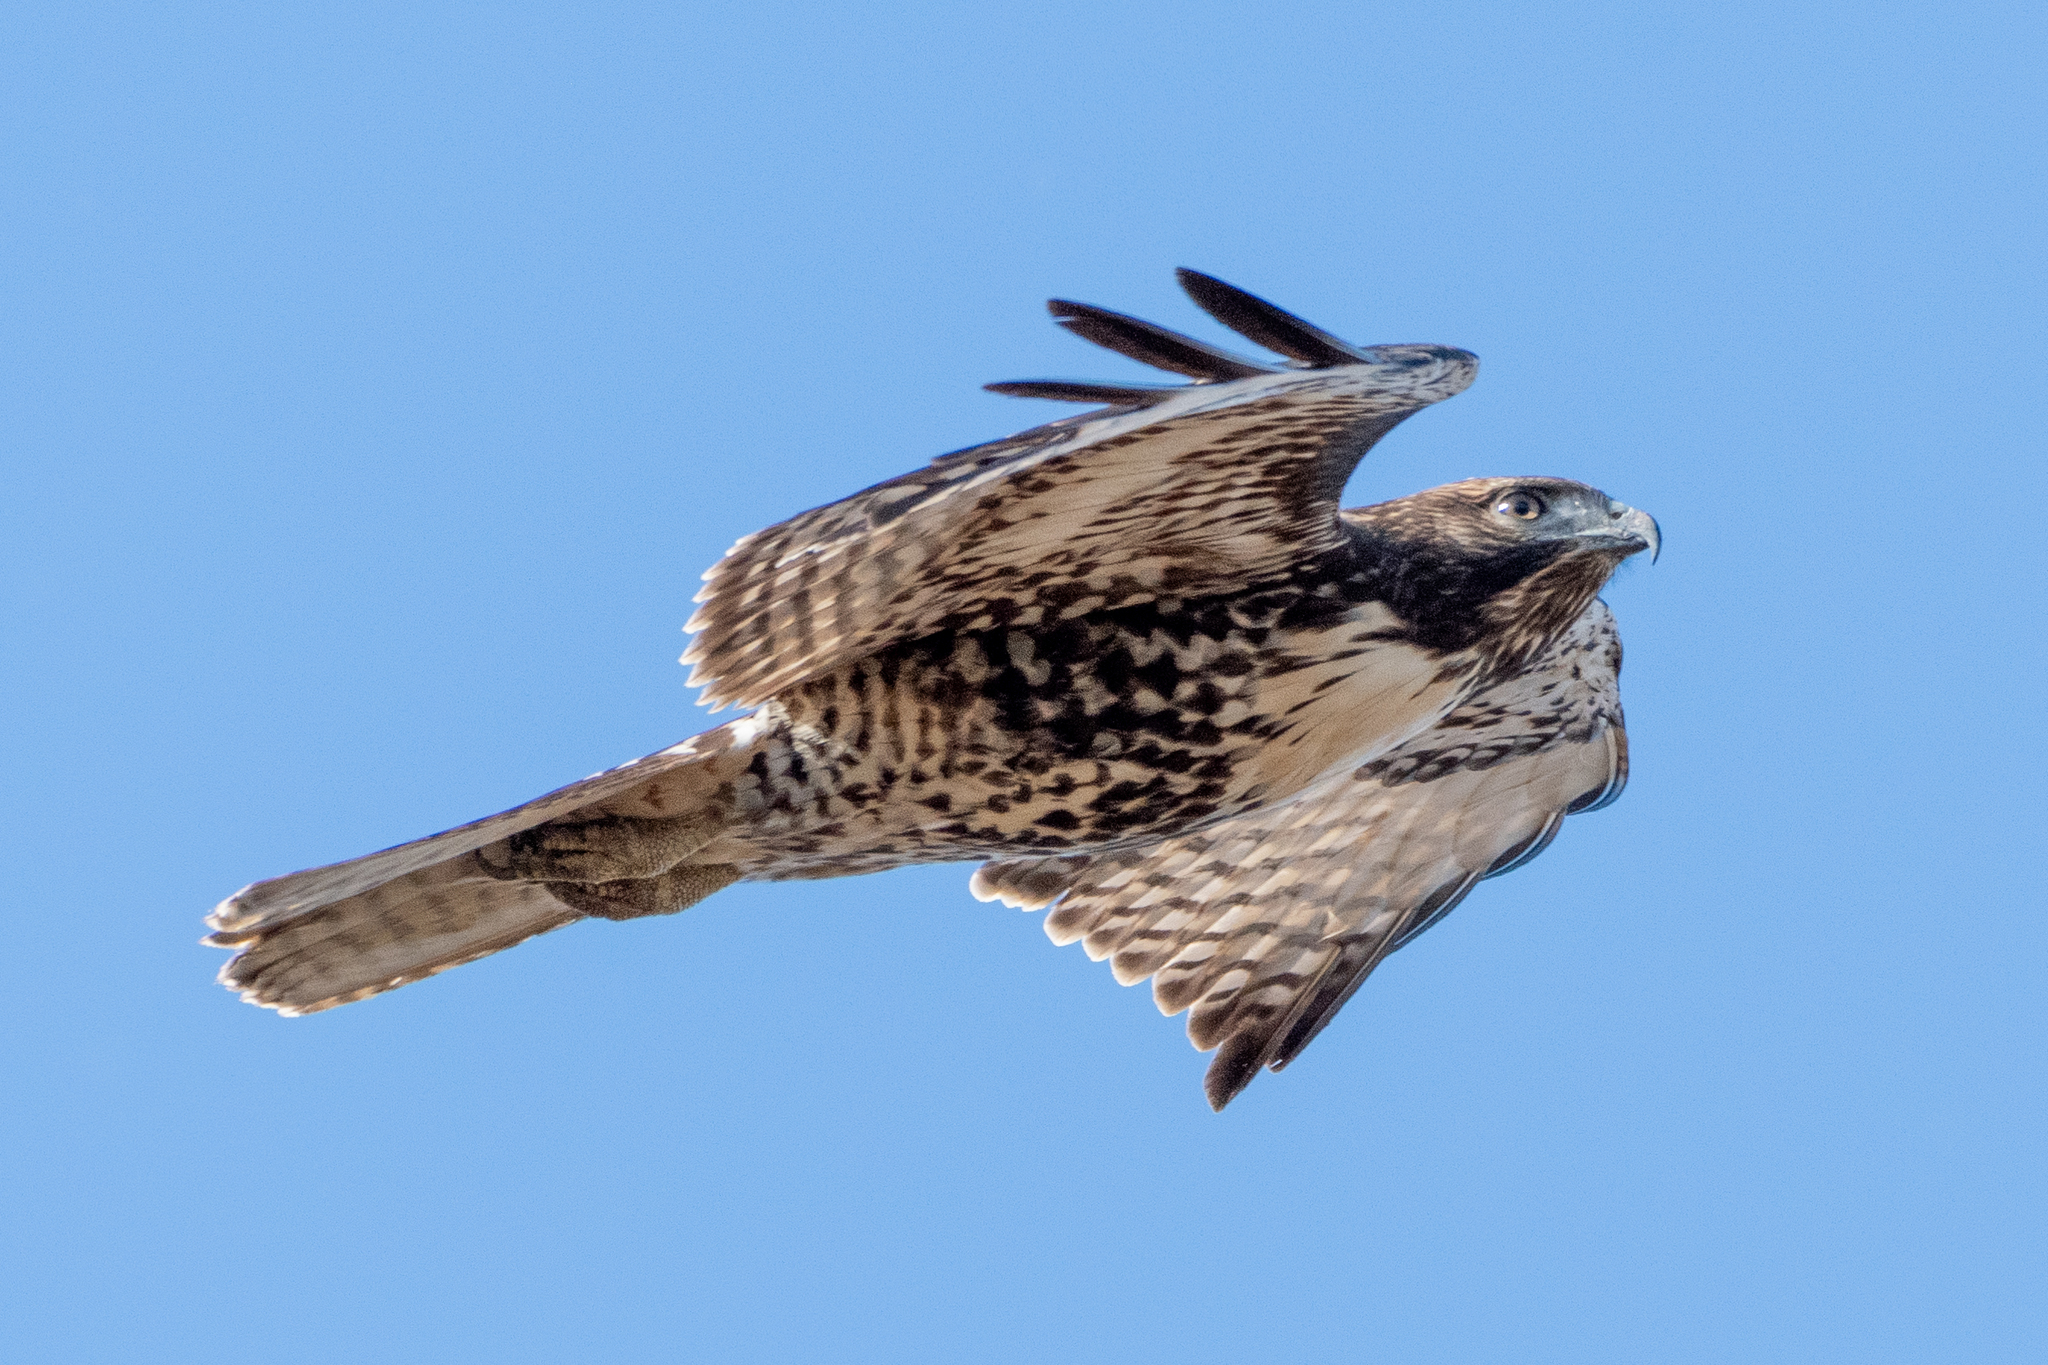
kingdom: Animalia
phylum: Chordata
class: Aves
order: Accipitriformes
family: Accipitridae
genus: Buteo
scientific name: Buteo jamaicensis
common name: Red-tailed hawk
